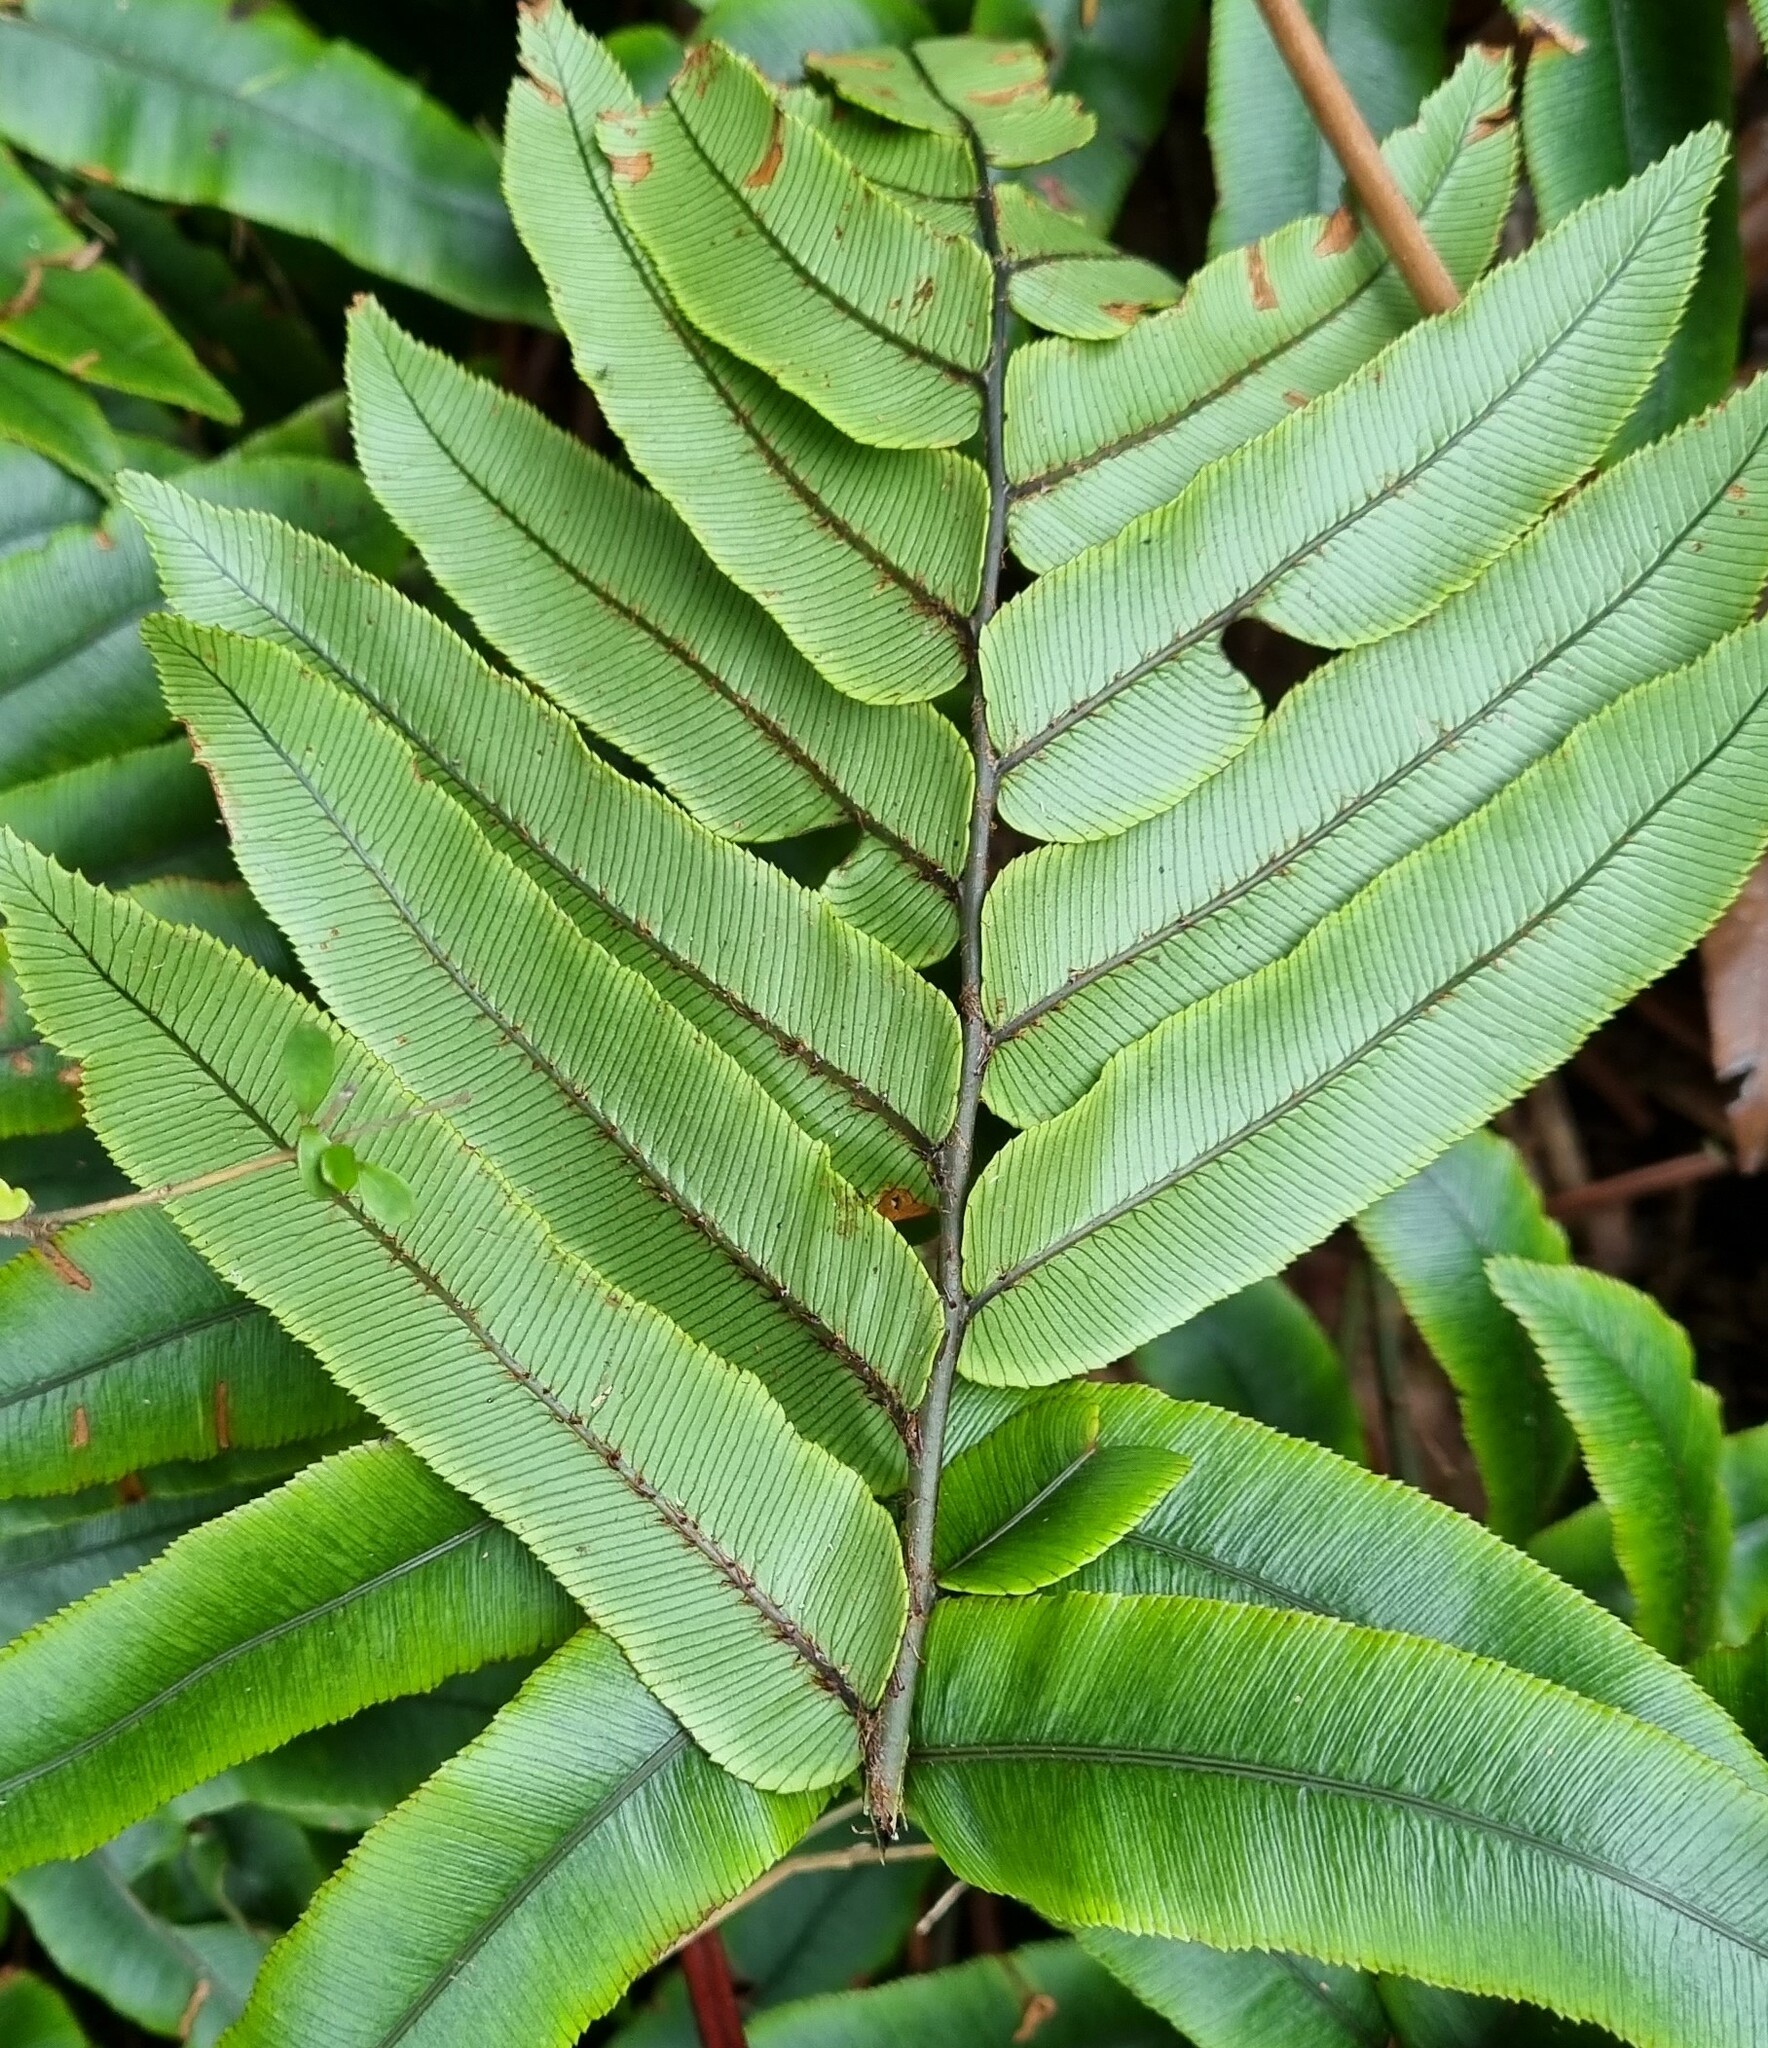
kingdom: Plantae
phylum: Tracheophyta
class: Polypodiopsida
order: Polypodiales
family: Blechnaceae
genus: Parablechnum
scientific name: Parablechnum procerum
